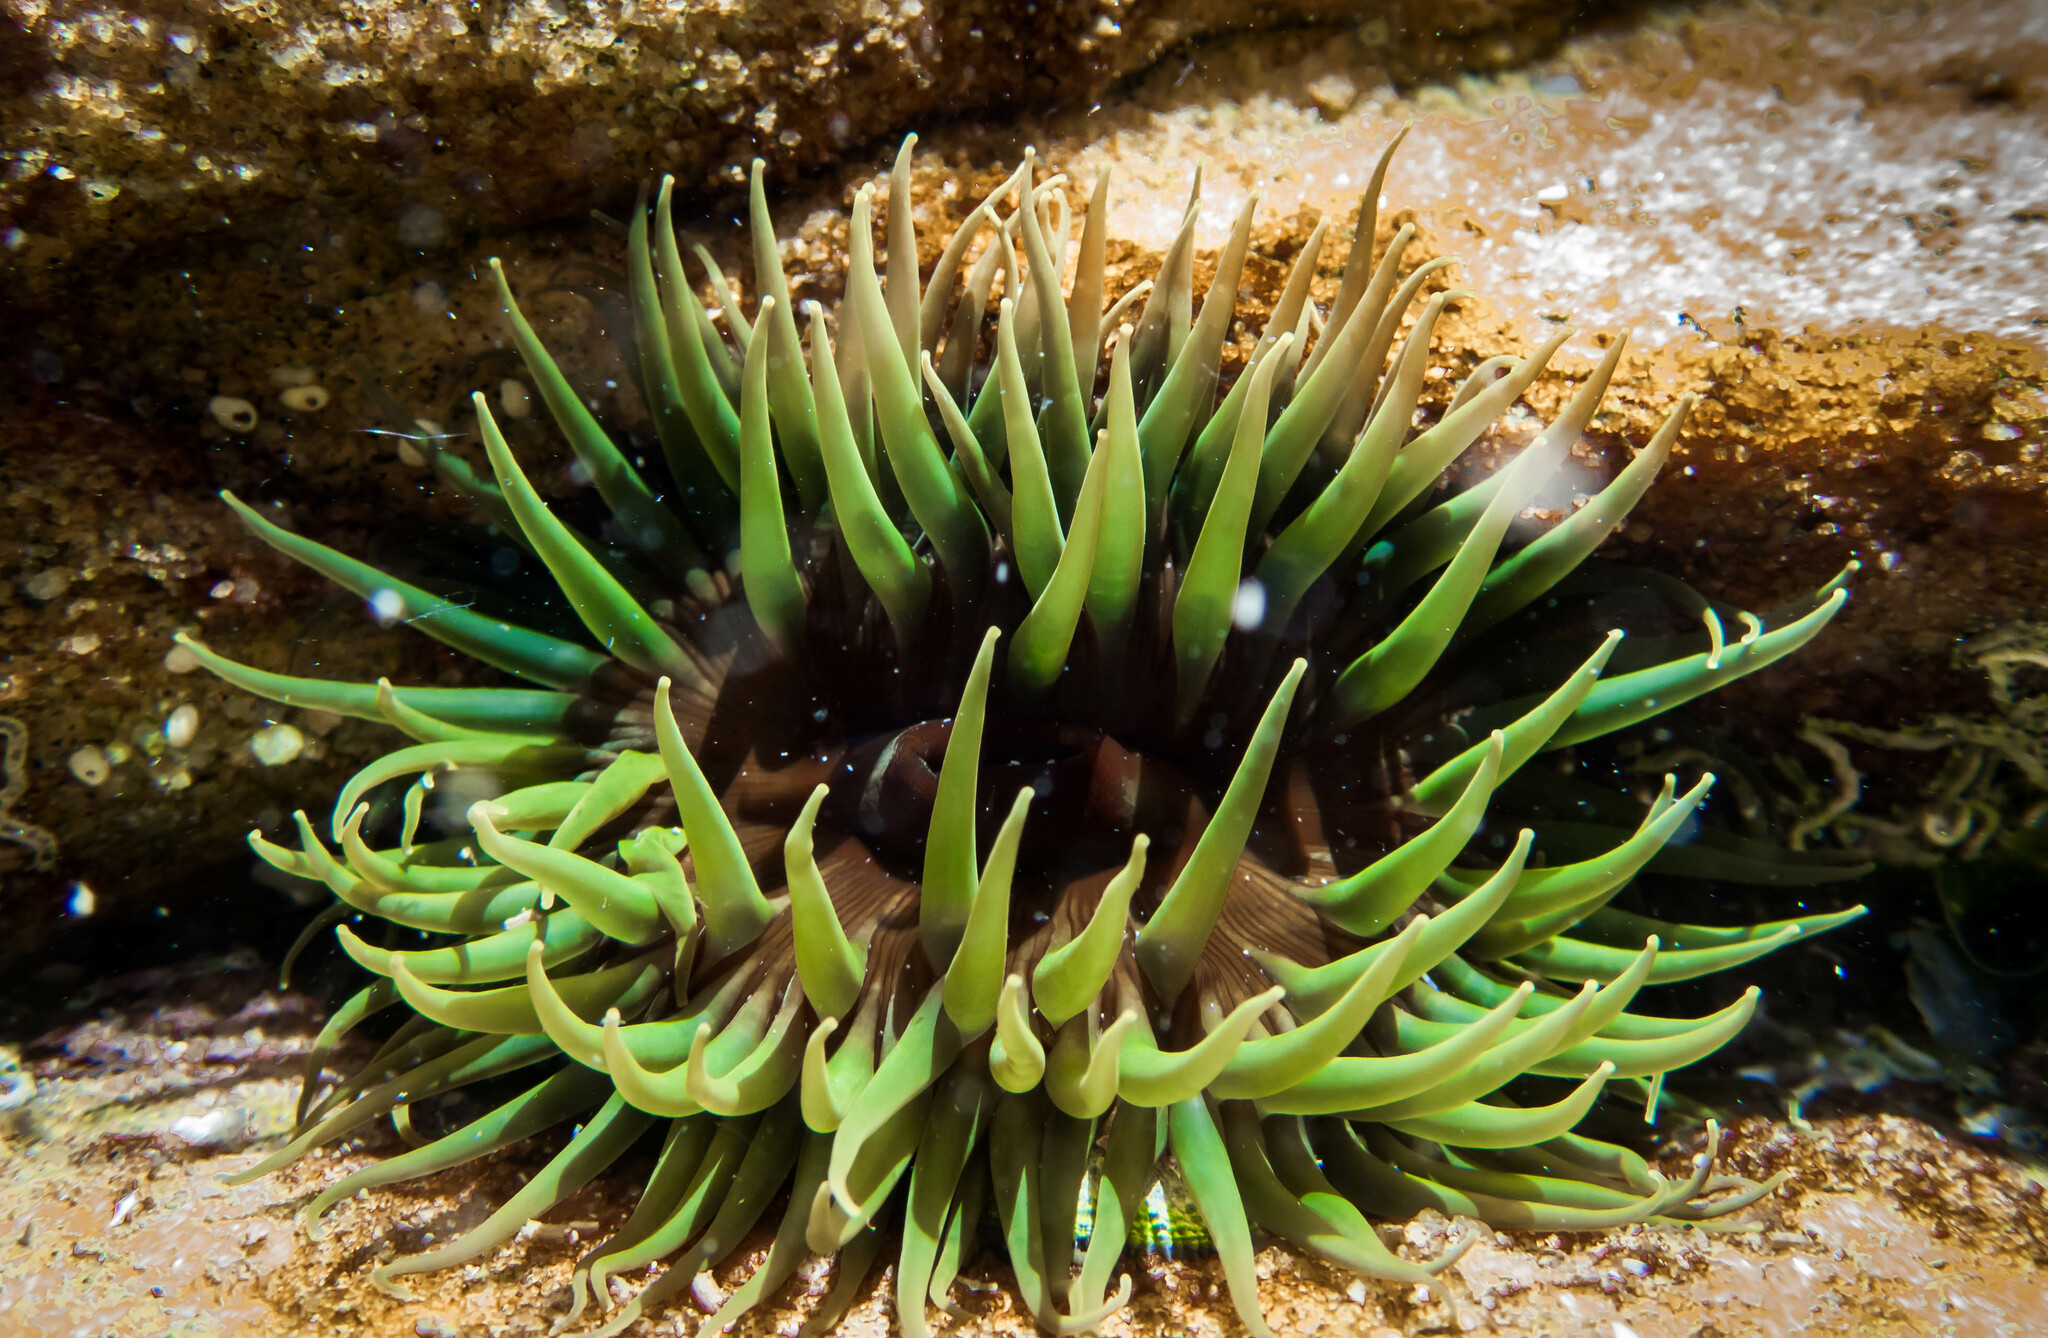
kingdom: Animalia
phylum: Cnidaria
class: Anthozoa
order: Actiniaria
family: Actiniidae
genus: Aulactinia
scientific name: Aulactinia veratra
